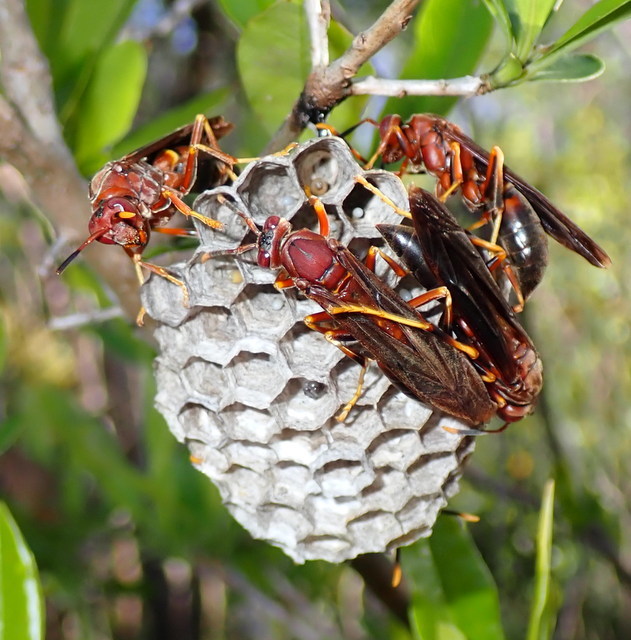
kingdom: Animalia
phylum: Arthropoda
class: Insecta
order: Hymenoptera
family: Eumenidae
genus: Polistes
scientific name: Polistes annularis
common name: Ringed paper wasp
